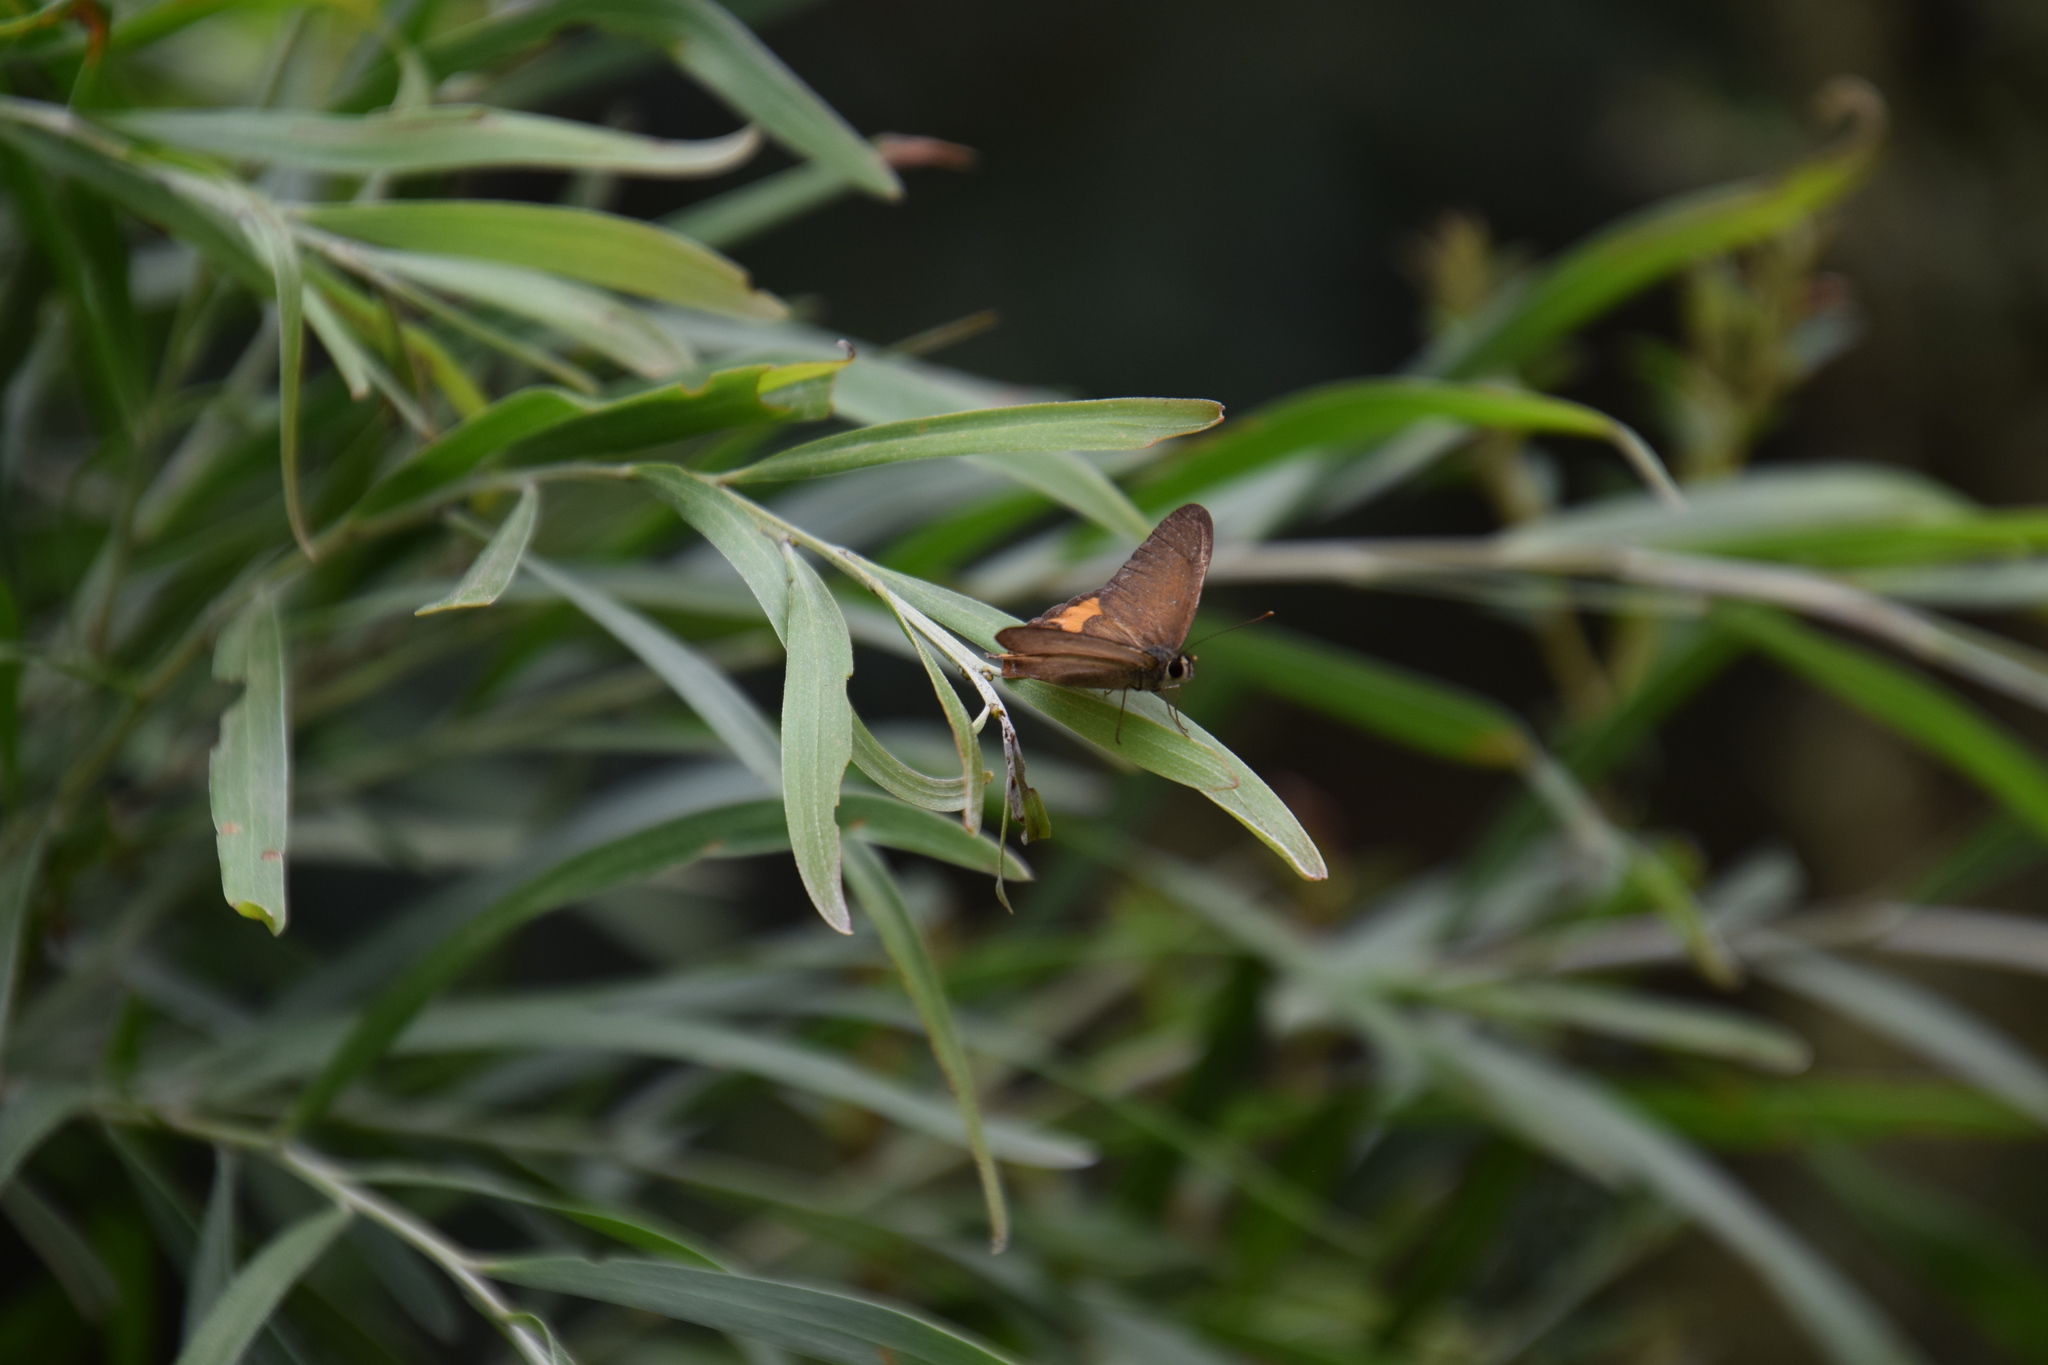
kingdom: Animalia
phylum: Arthropoda
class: Insecta
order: Lepidoptera
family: Nymphalidae
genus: Hypocysta
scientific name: Hypocysta metirius
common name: Brown ringlet
